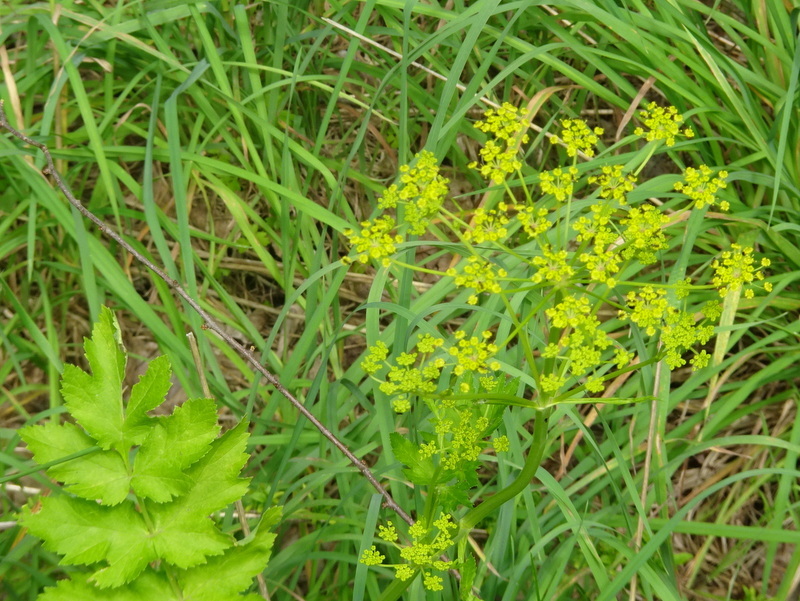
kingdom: Plantae
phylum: Tracheophyta
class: Magnoliopsida
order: Apiales
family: Apiaceae
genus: Pastinaca
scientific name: Pastinaca sativa
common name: Wild parsnip
